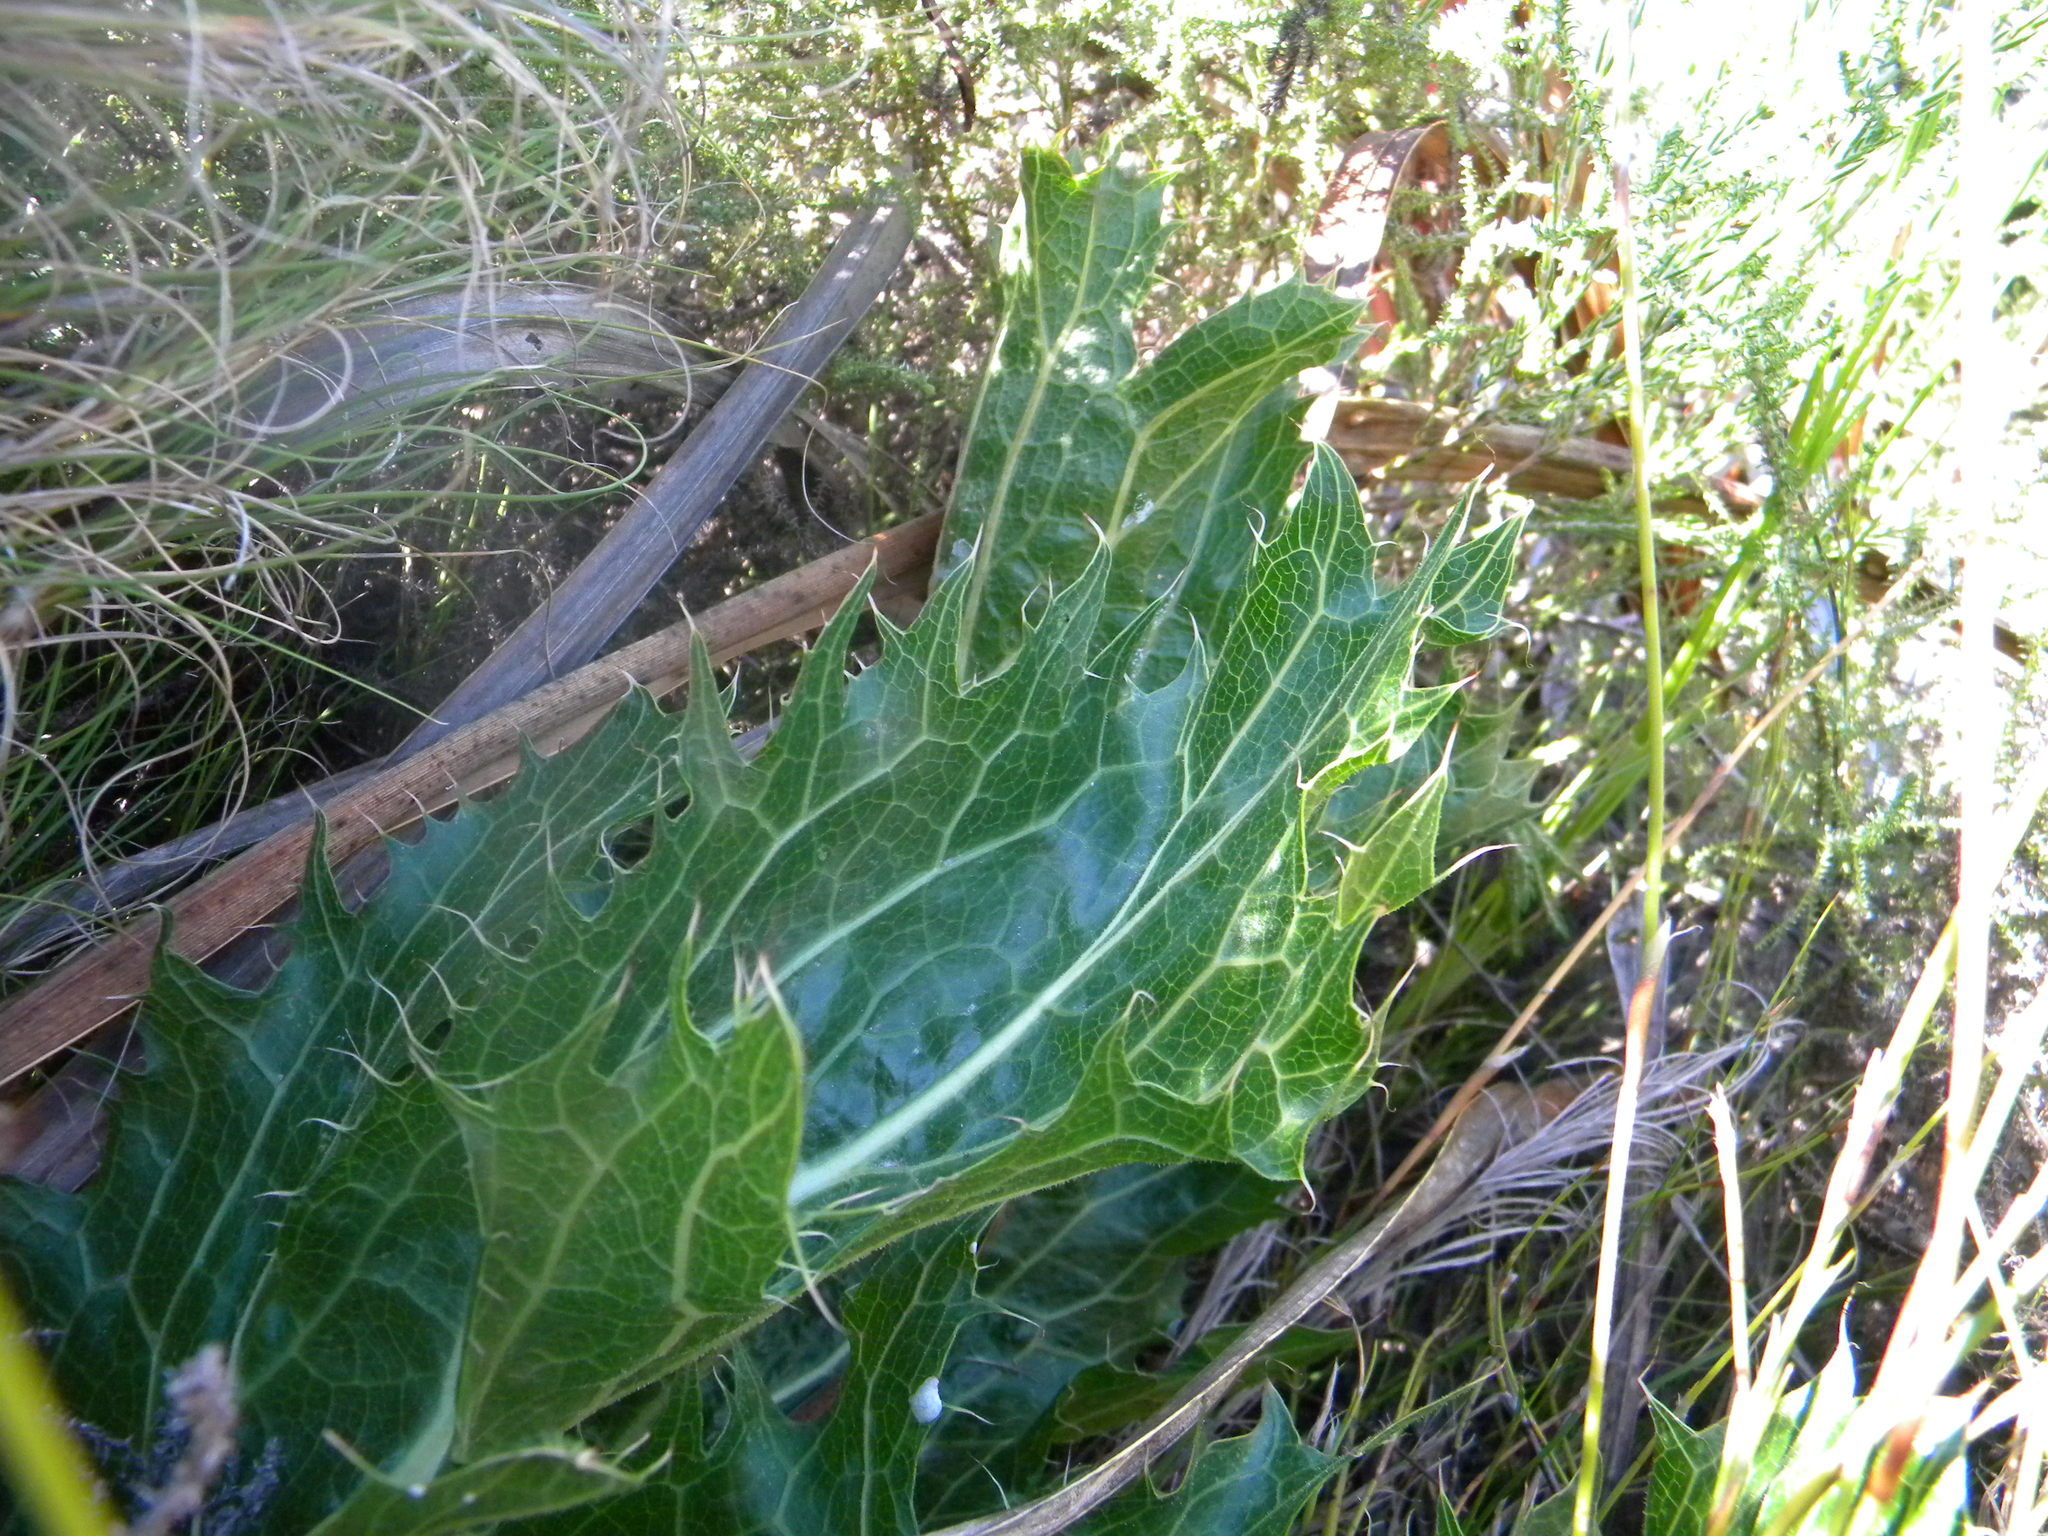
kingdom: Plantae
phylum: Tracheophyta
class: Magnoliopsida
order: Apiales
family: Apiaceae
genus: Lichtensteinia
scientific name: Lichtensteinia lacera
